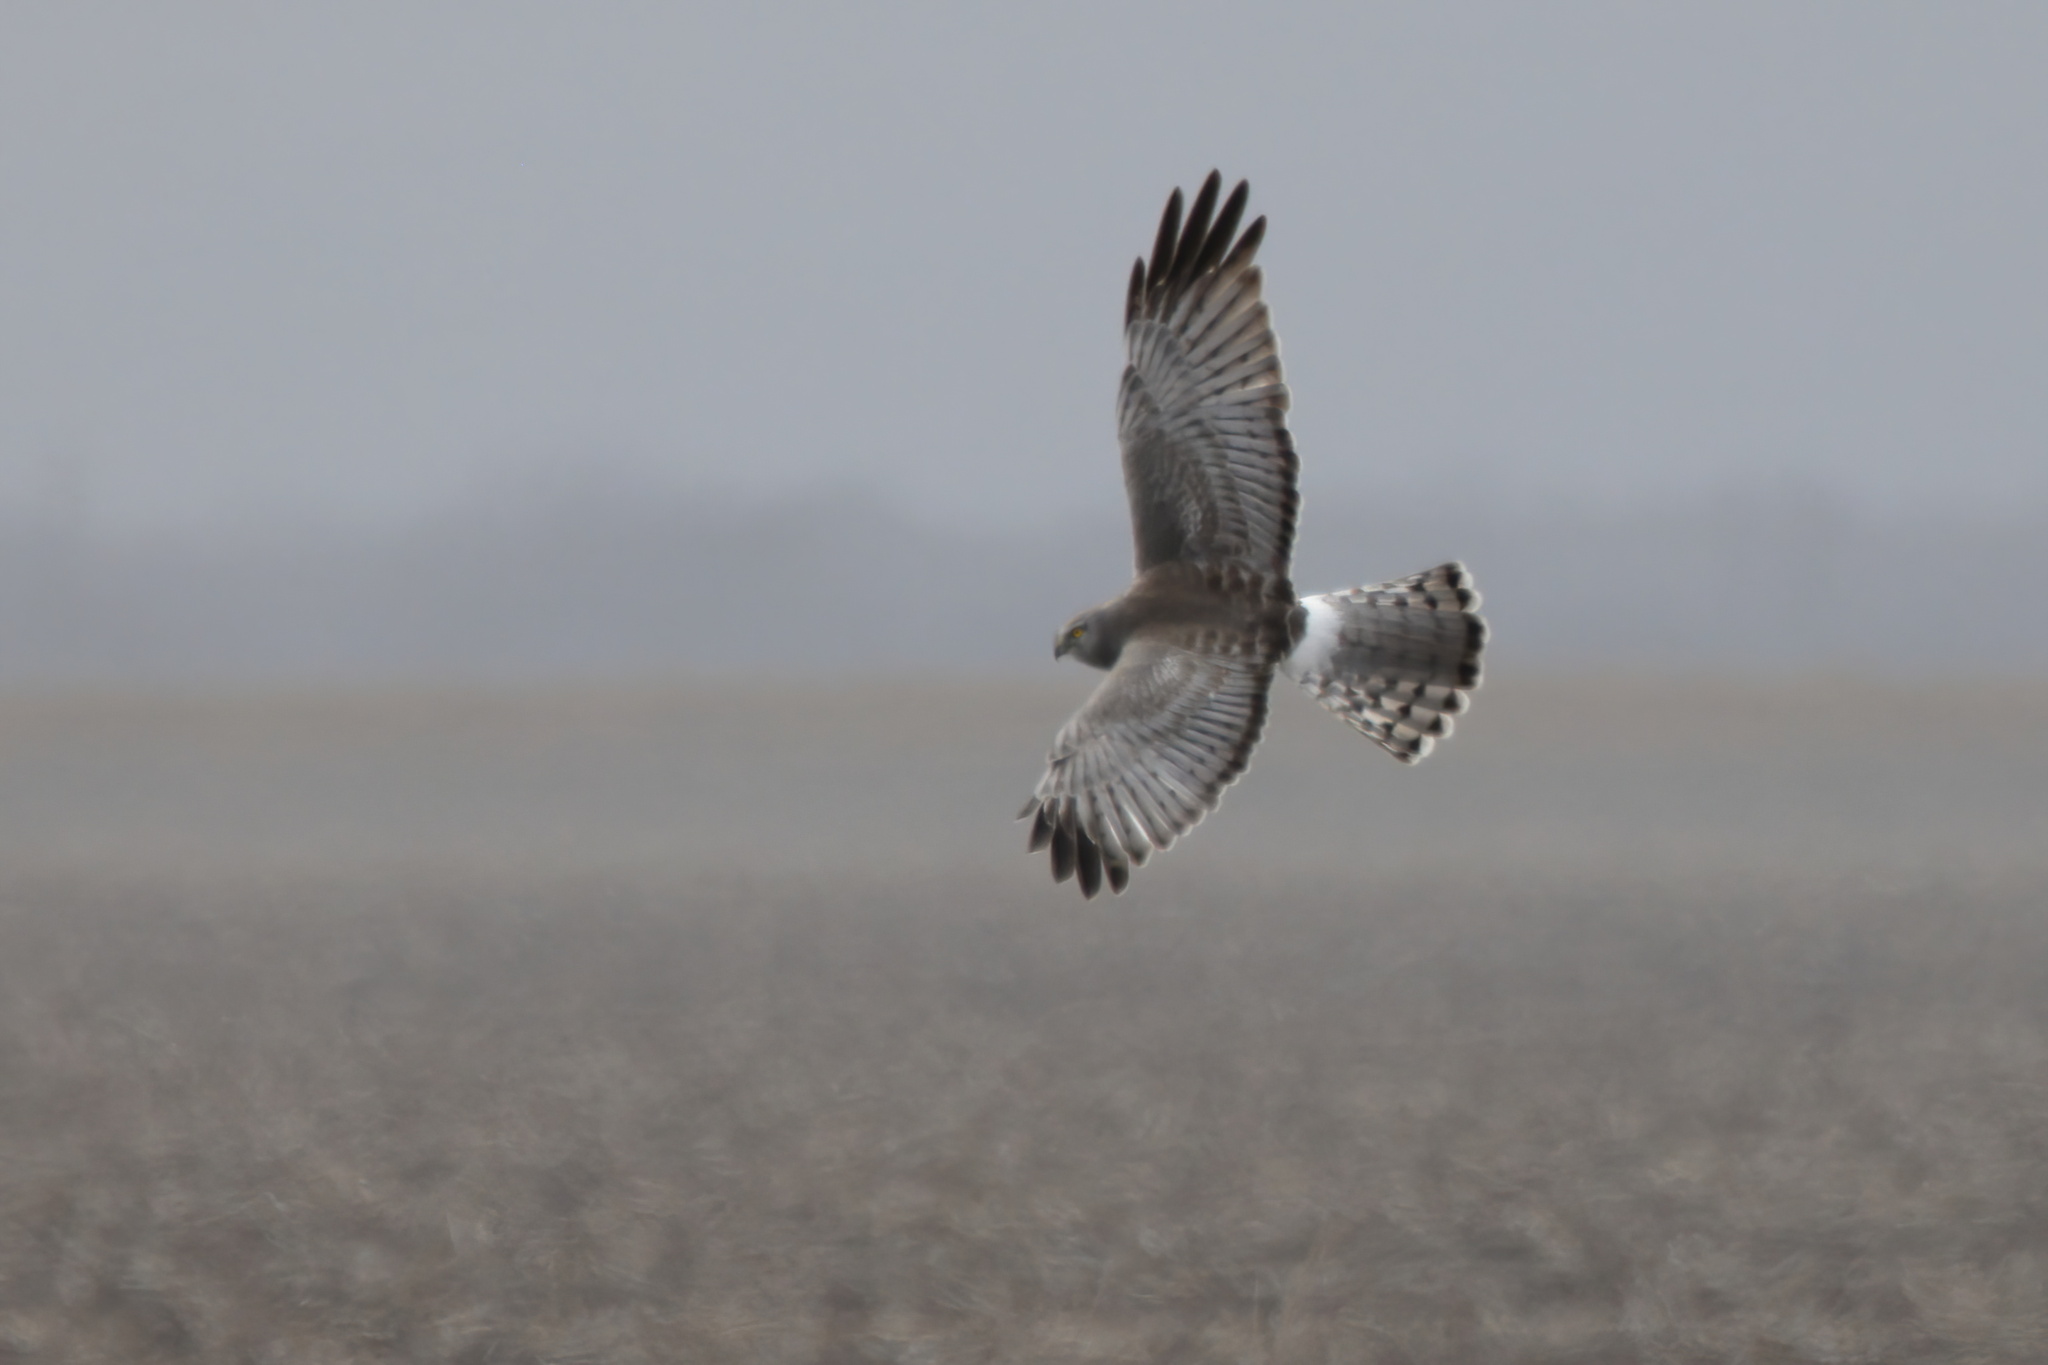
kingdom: Animalia
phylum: Chordata
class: Aves
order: Accipitriformes
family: Accipitridae
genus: Circus
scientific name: Circus cyaneus
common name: Hen harrier
